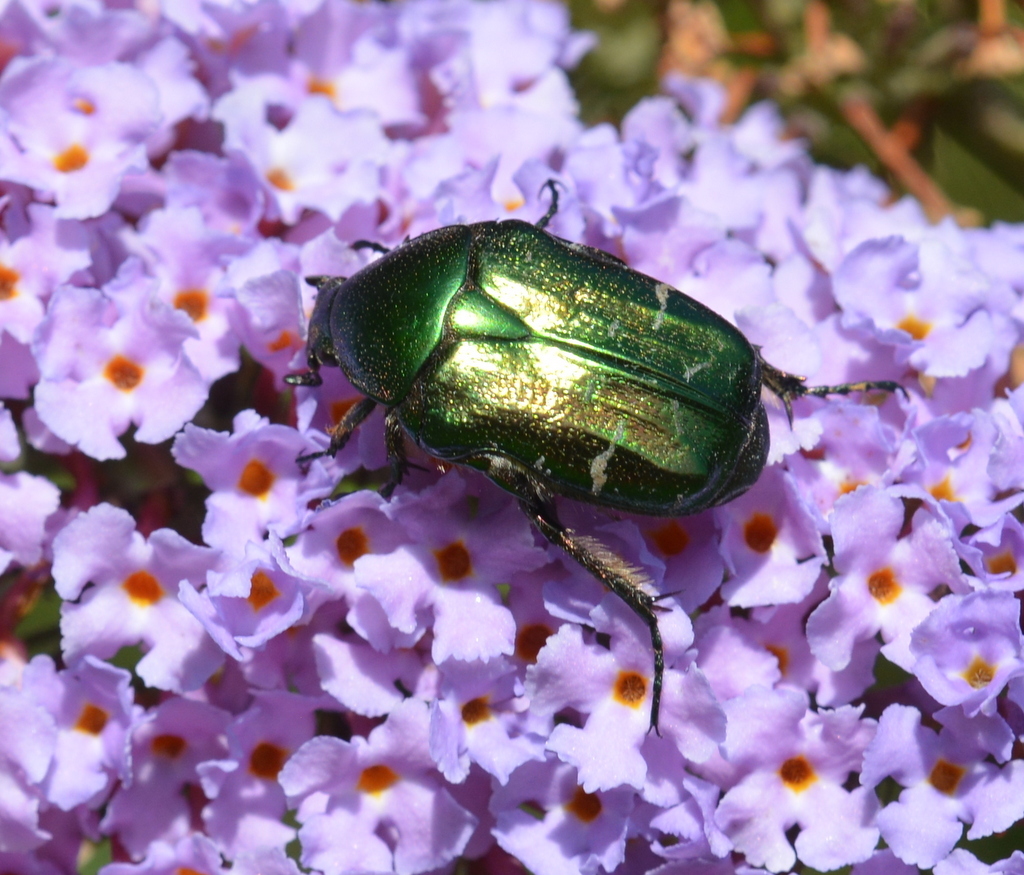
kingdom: Animalia
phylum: Arthropoda
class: Insecta
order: Coleoptera
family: Scarabaeidae
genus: Cetonia
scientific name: Cetonia aurata
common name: Rose chafer
